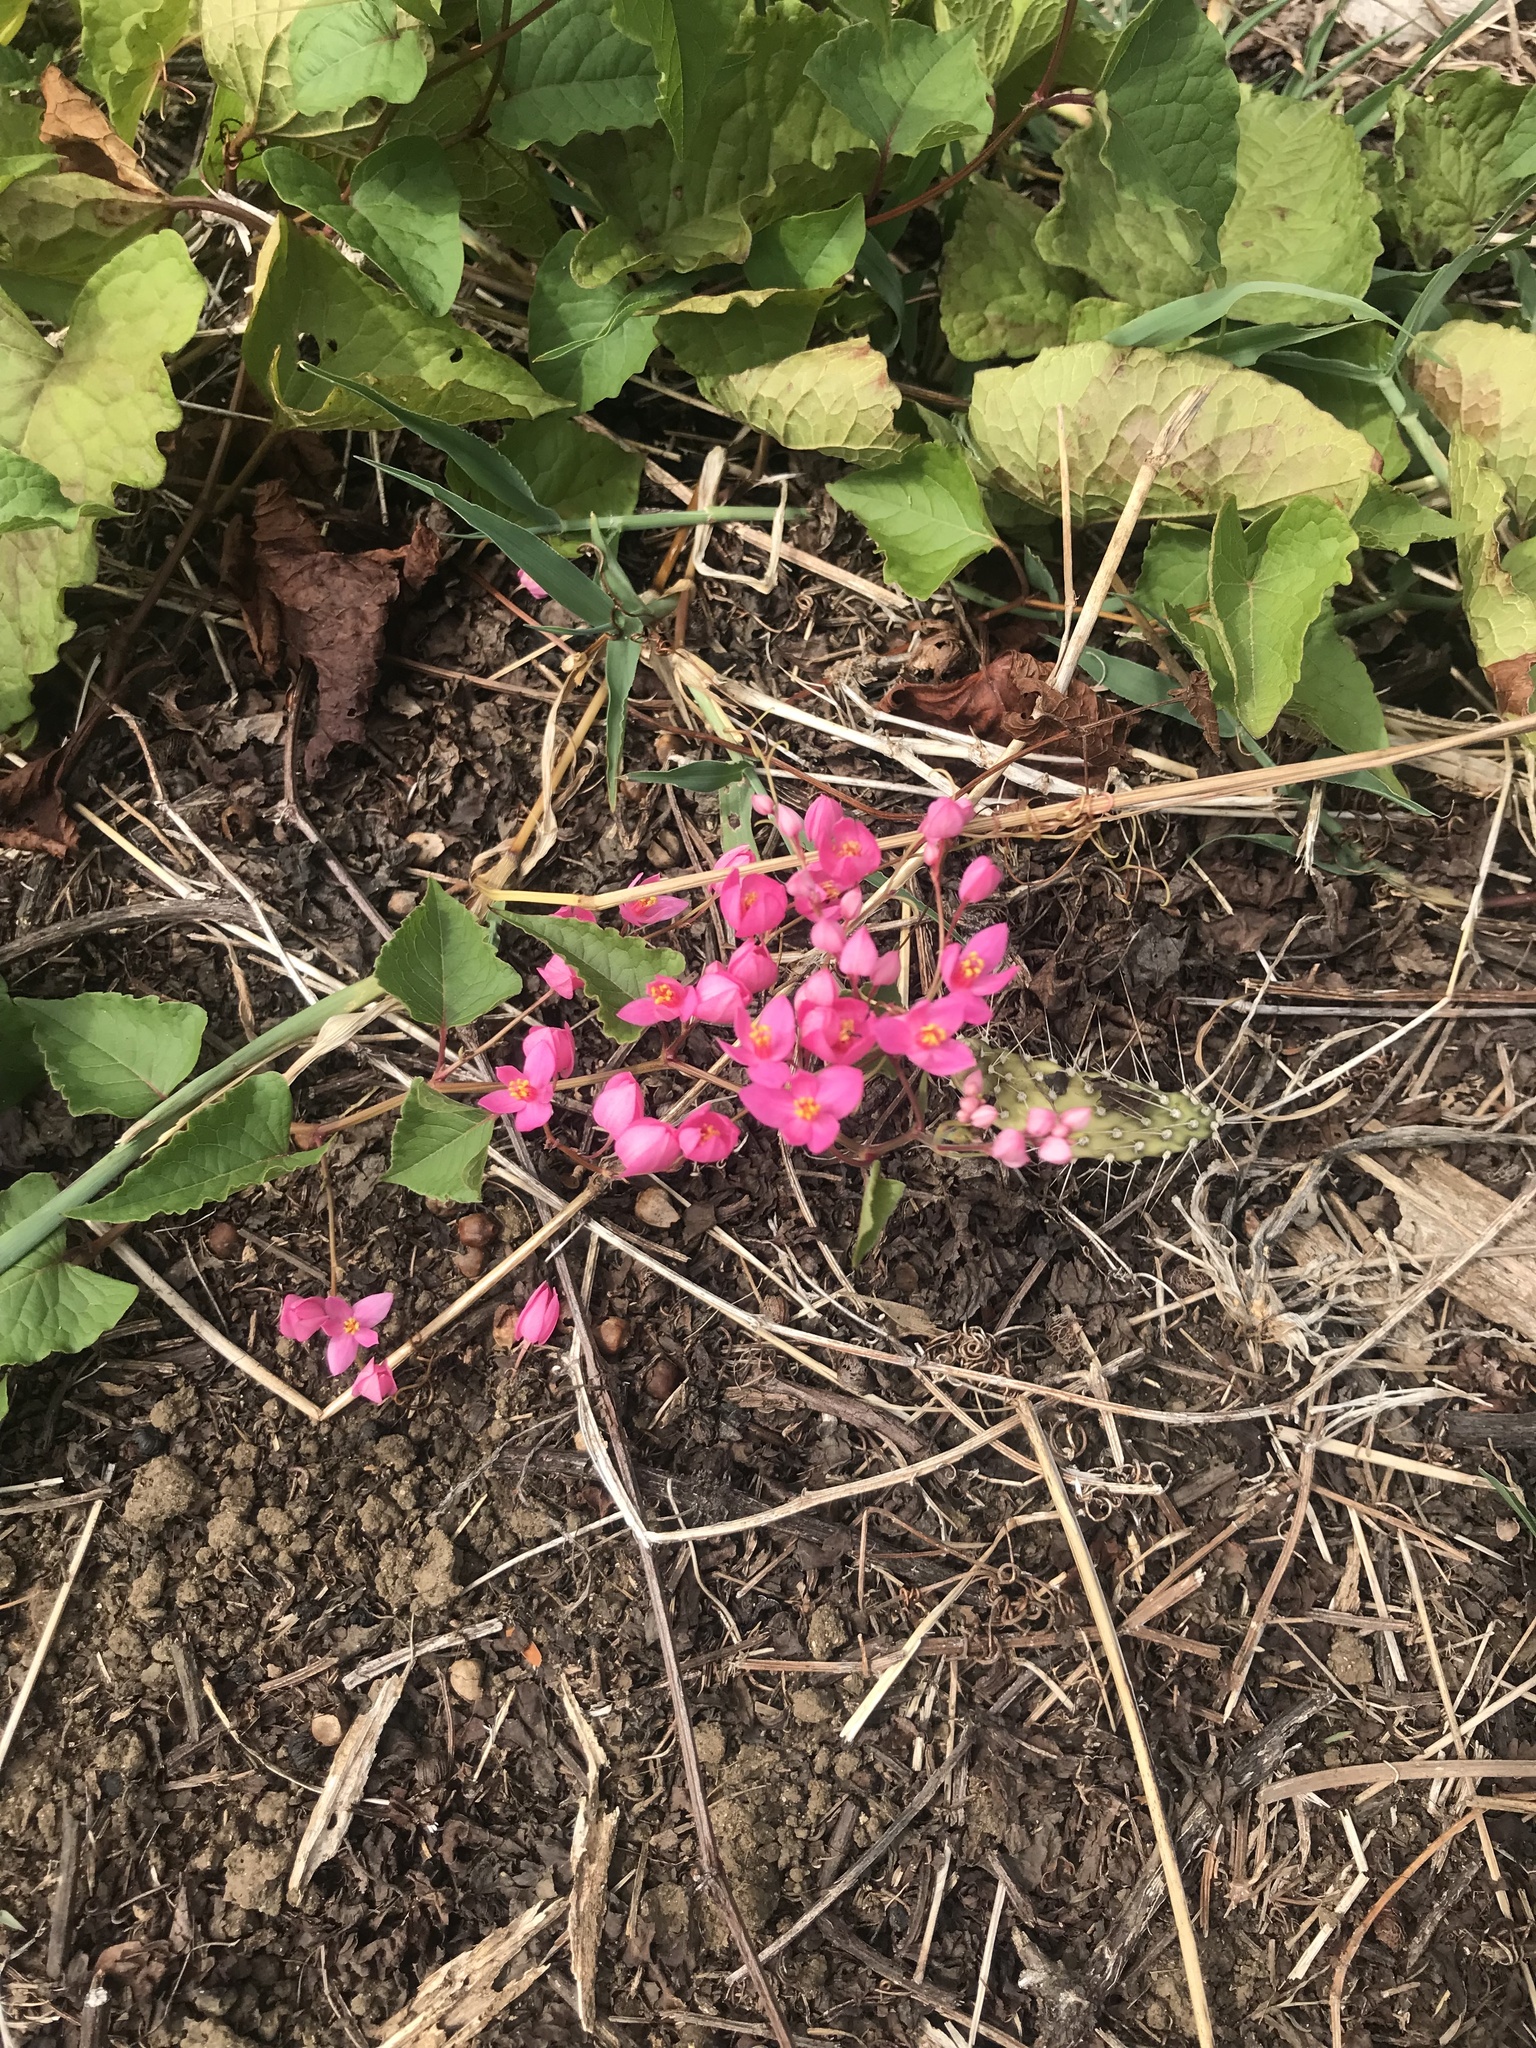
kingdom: Plantae
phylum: Tracheophyta
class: Magnoliopsida
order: Caryophyllales
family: Polygonaceae
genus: Antigonon
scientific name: Antigonon leptopus
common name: Coral vine
